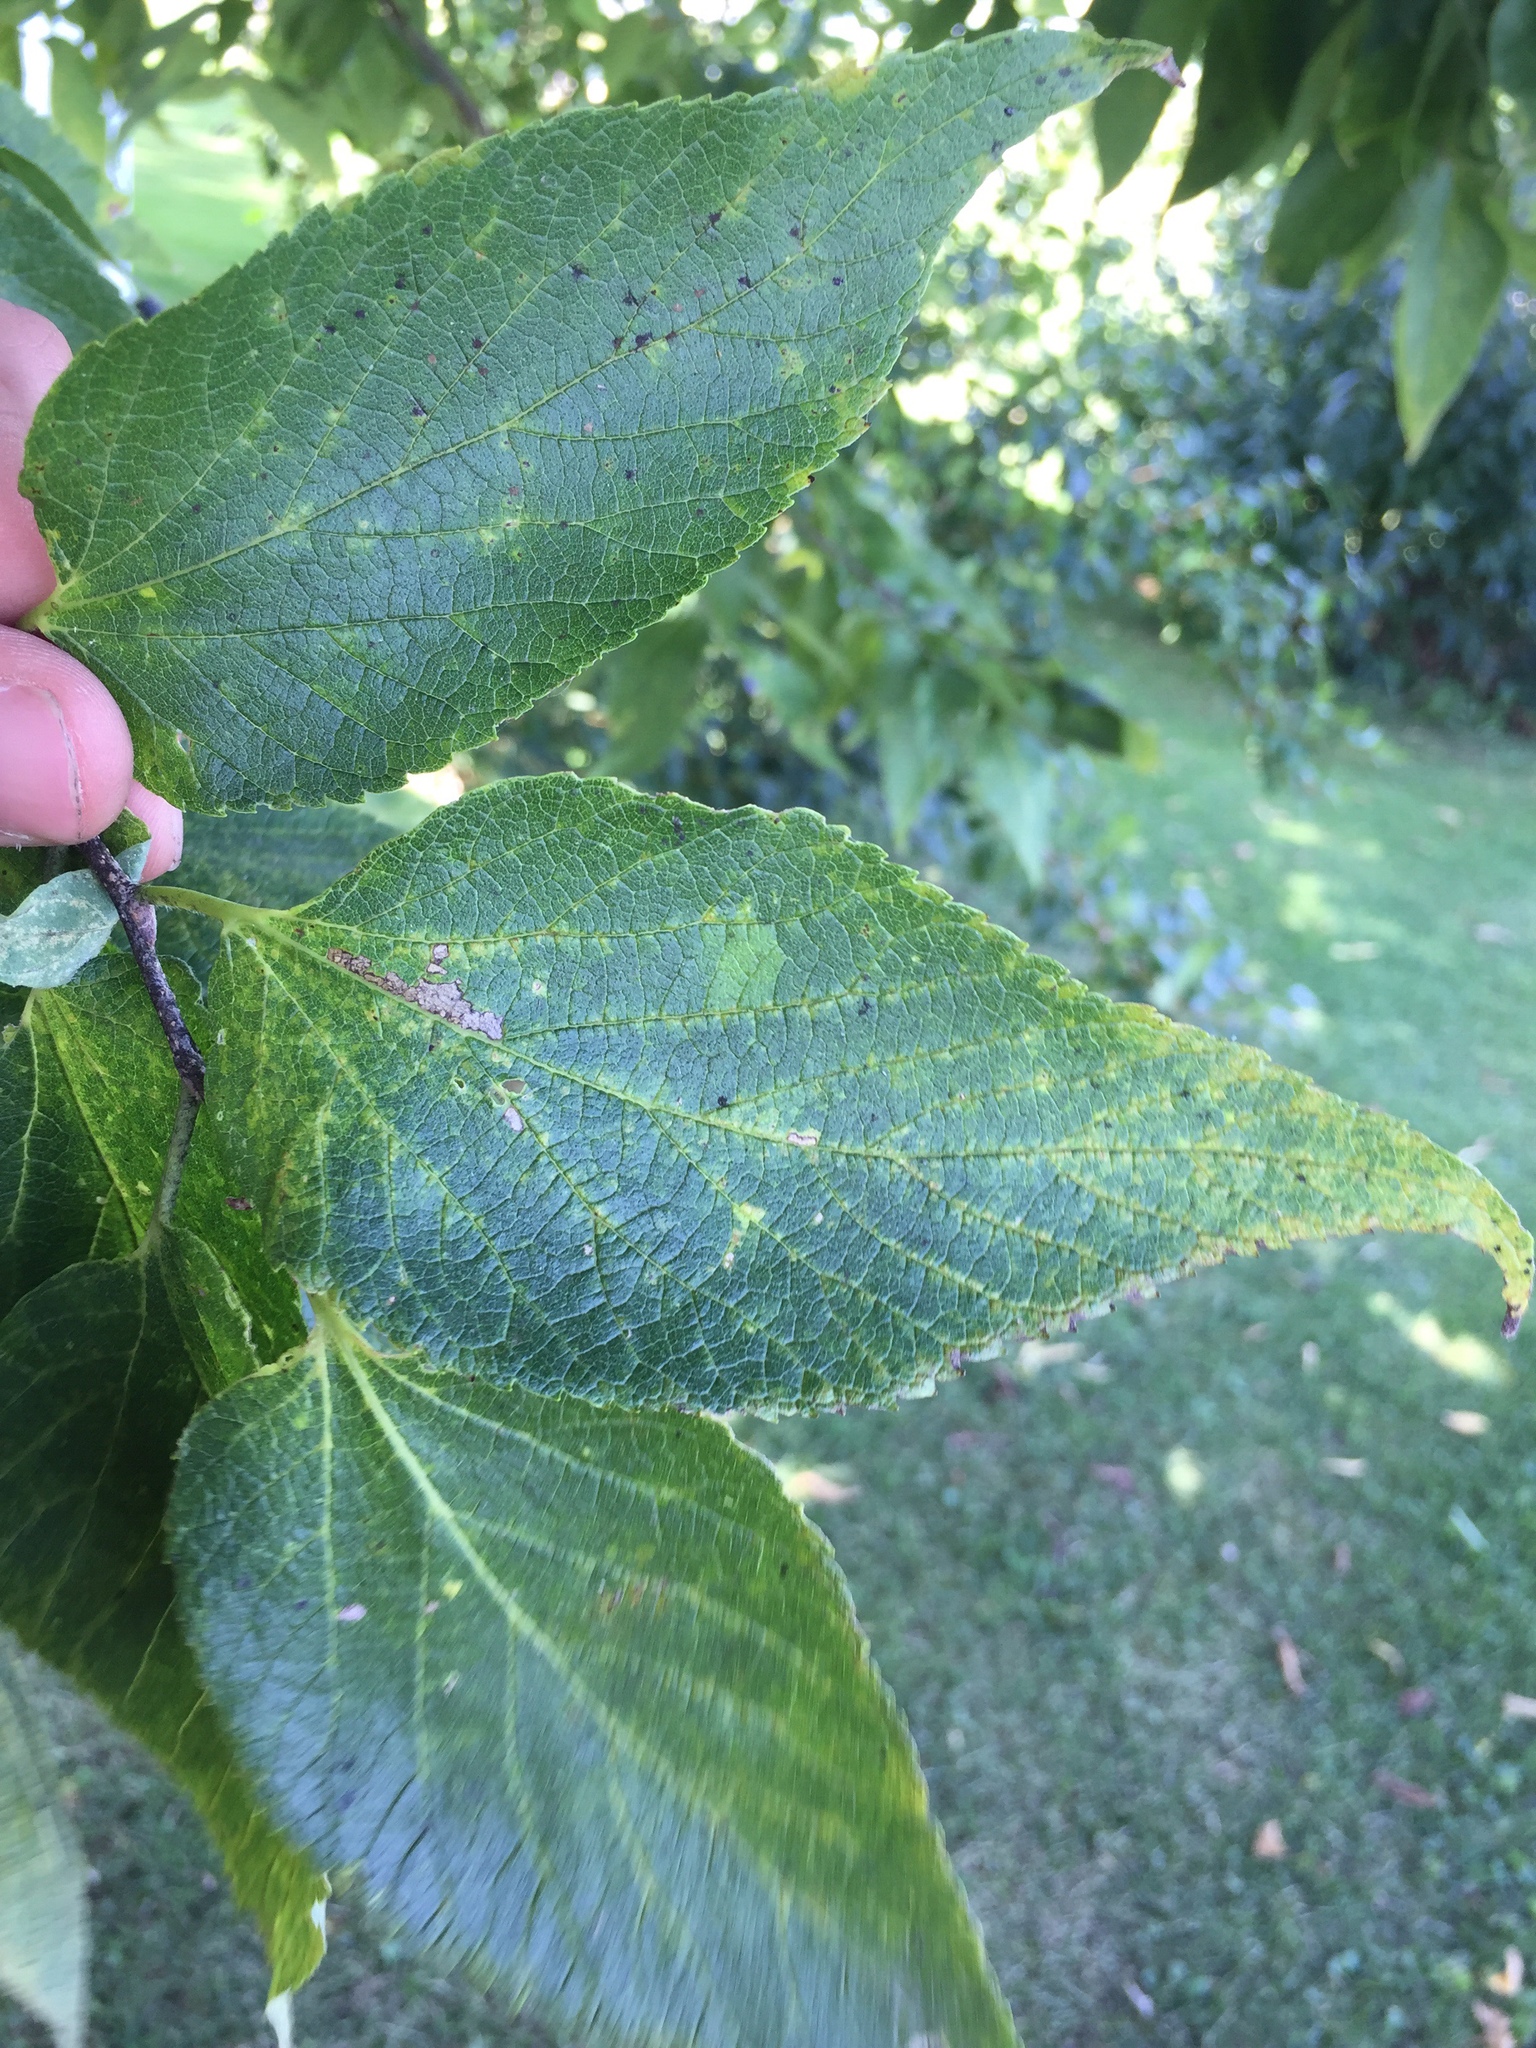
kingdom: Plantae
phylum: Tracheophyta
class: Magnoliopsida
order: Rosales
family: Cannabaceae
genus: Celtis
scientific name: Celtis occidentalis
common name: Common hackberry
